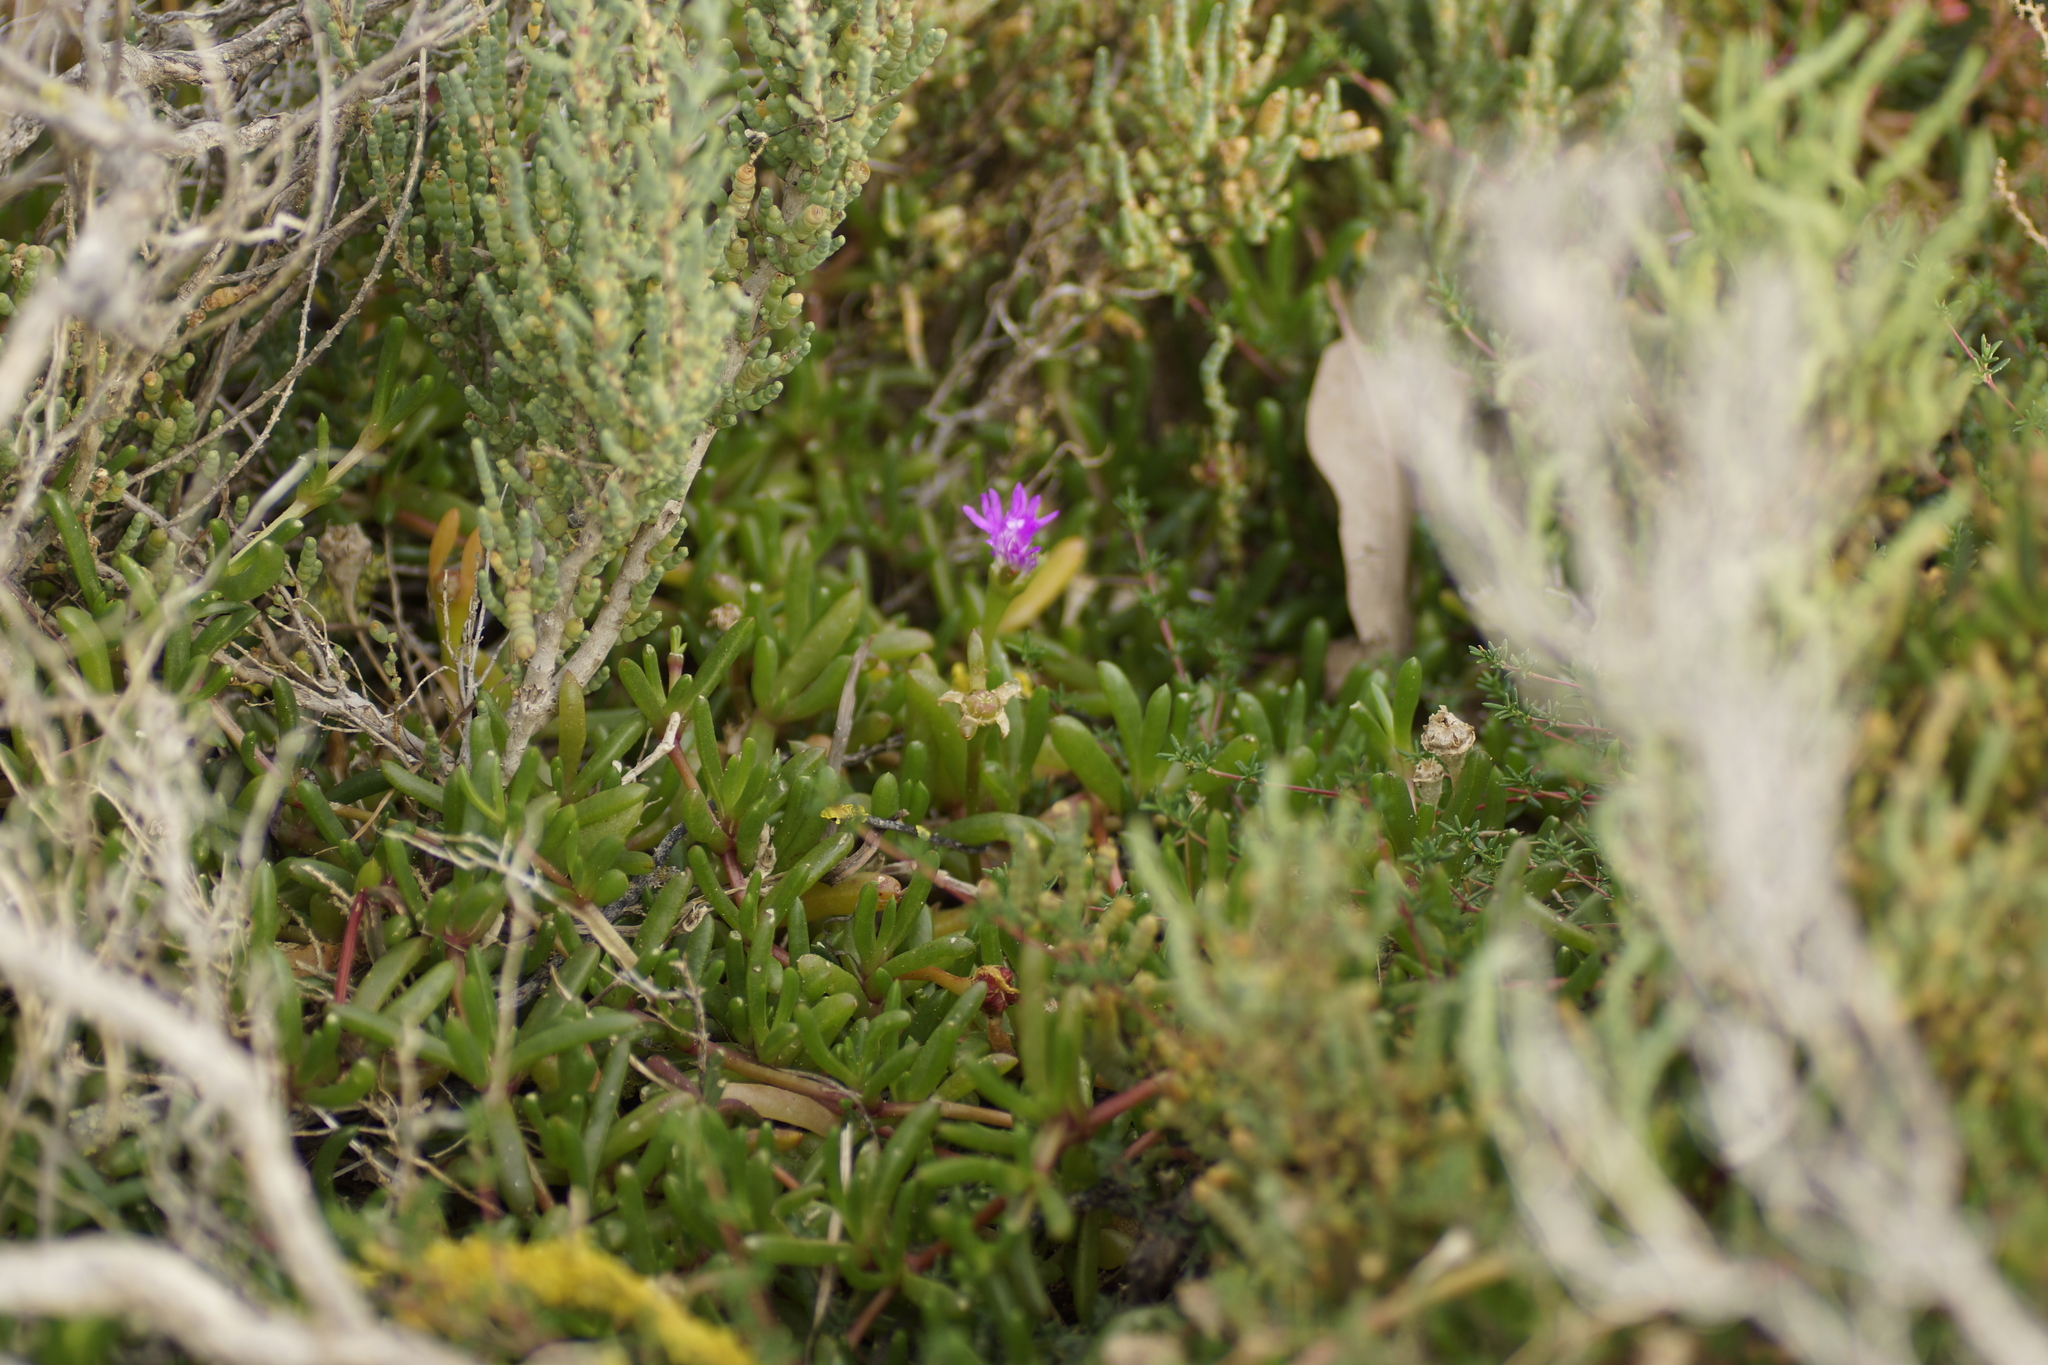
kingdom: Plantae
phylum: Tracheophyta
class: Magnoliopsida
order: Caryophyllales
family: Aizoaceae
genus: Disphyma
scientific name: Disphyma crassifolium
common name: Purple dewplant
